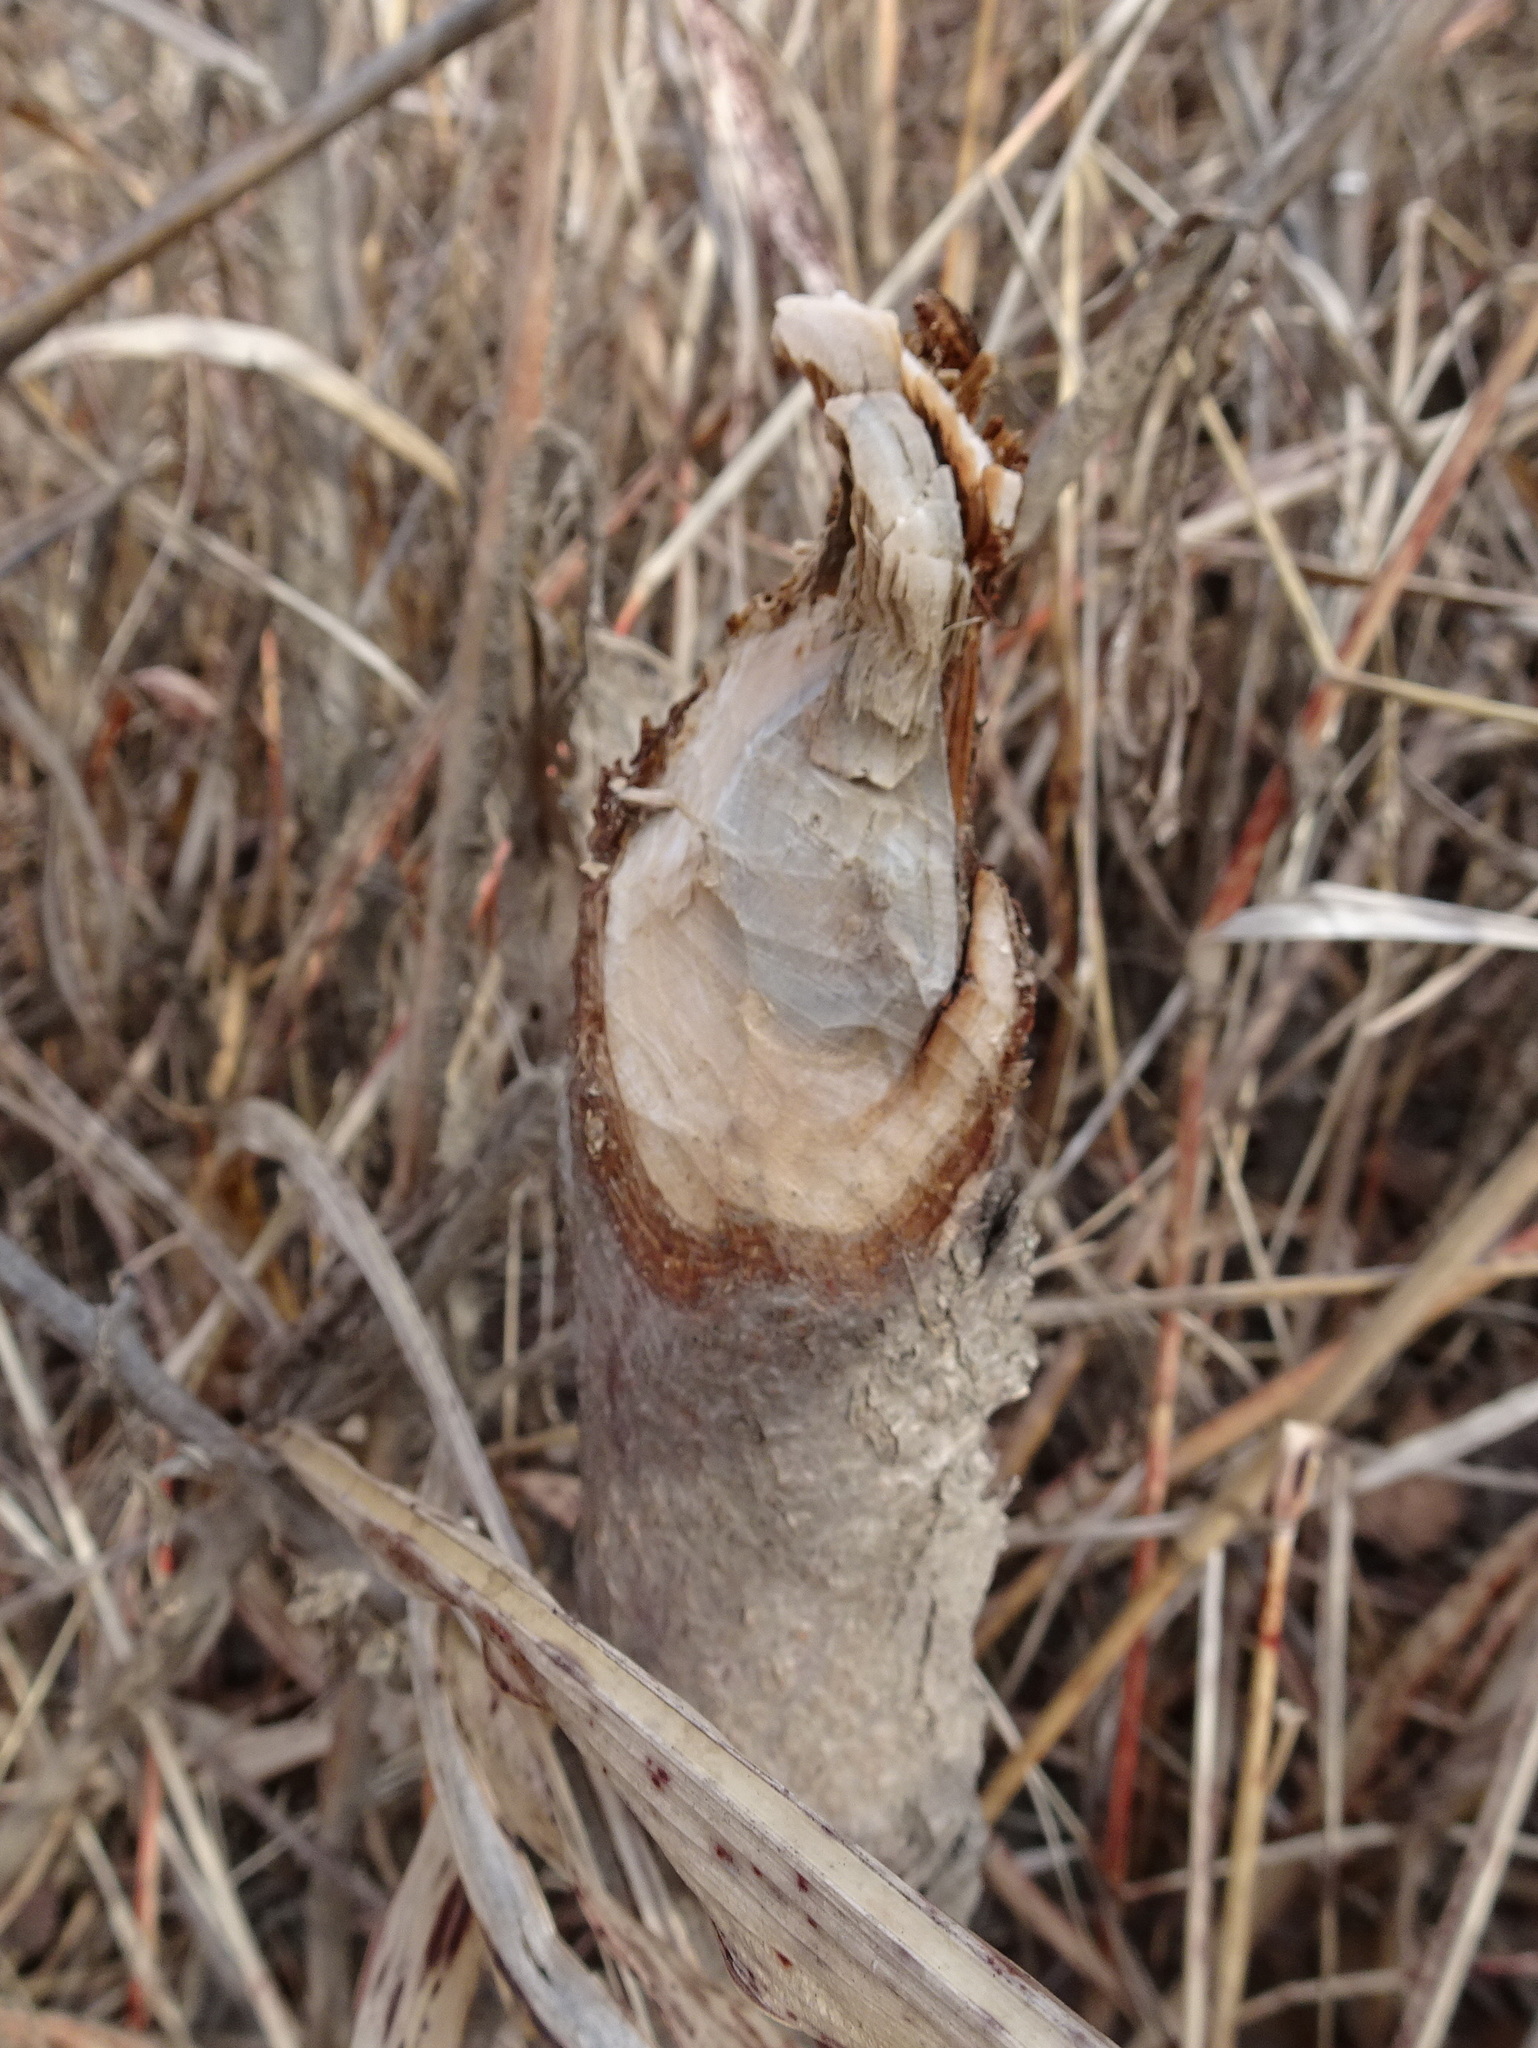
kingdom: Animalia
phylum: Chordata
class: Mammalia
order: Rodentia
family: Castoridae
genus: Castor
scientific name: Castor canadensis
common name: American beaver
